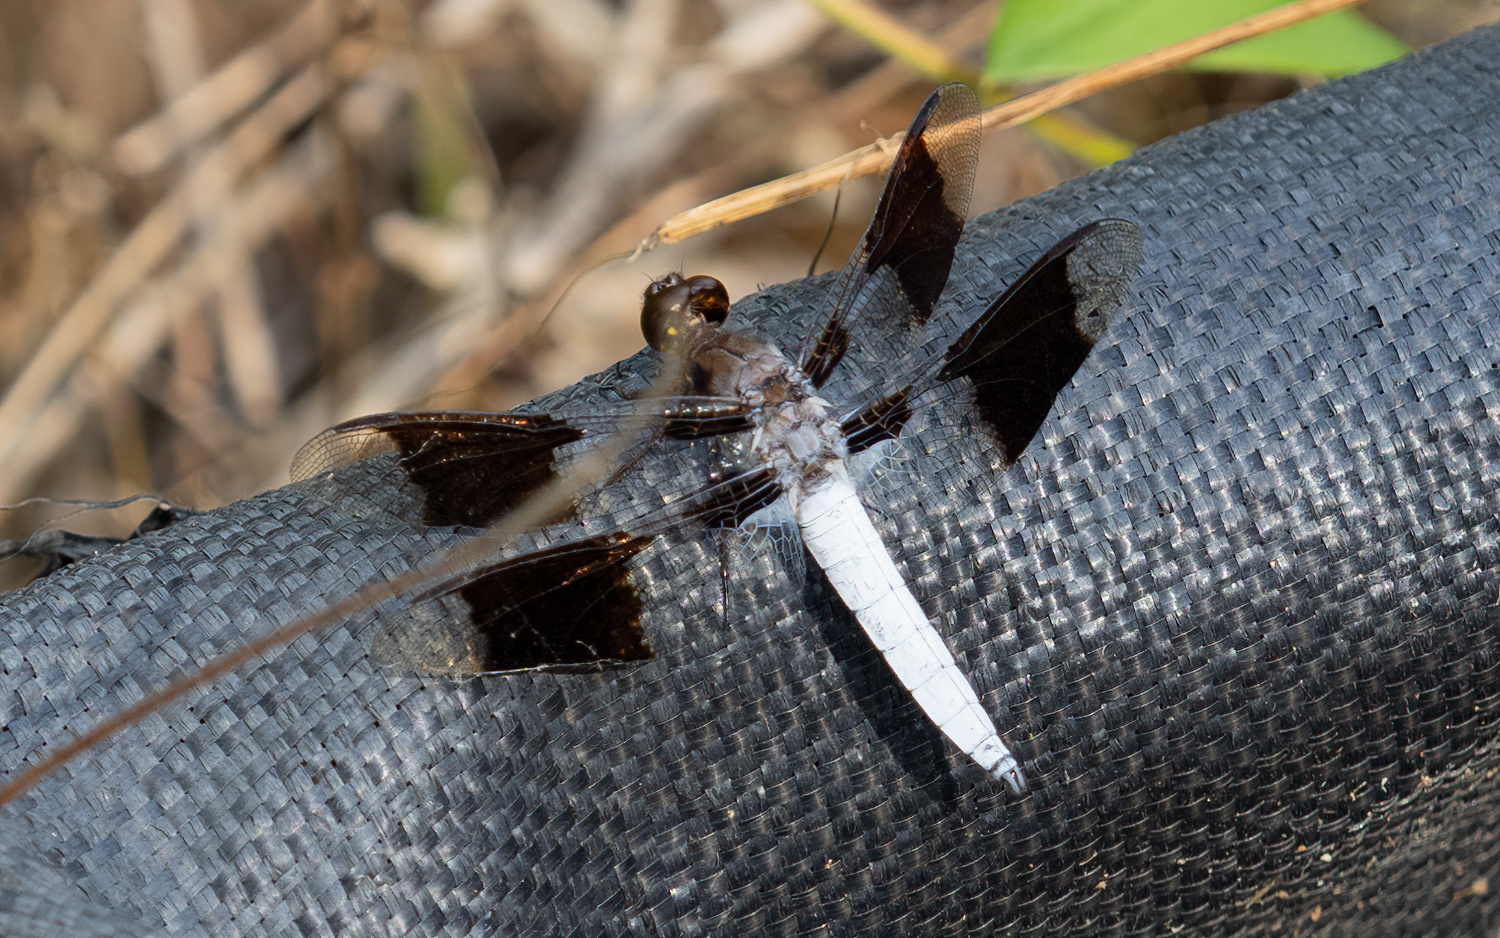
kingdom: Animalia
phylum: Arthropoda
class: Insecta
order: Odonata
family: Libellulidae
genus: Plathemis
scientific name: Plathemis lydia
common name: Common whitetail
